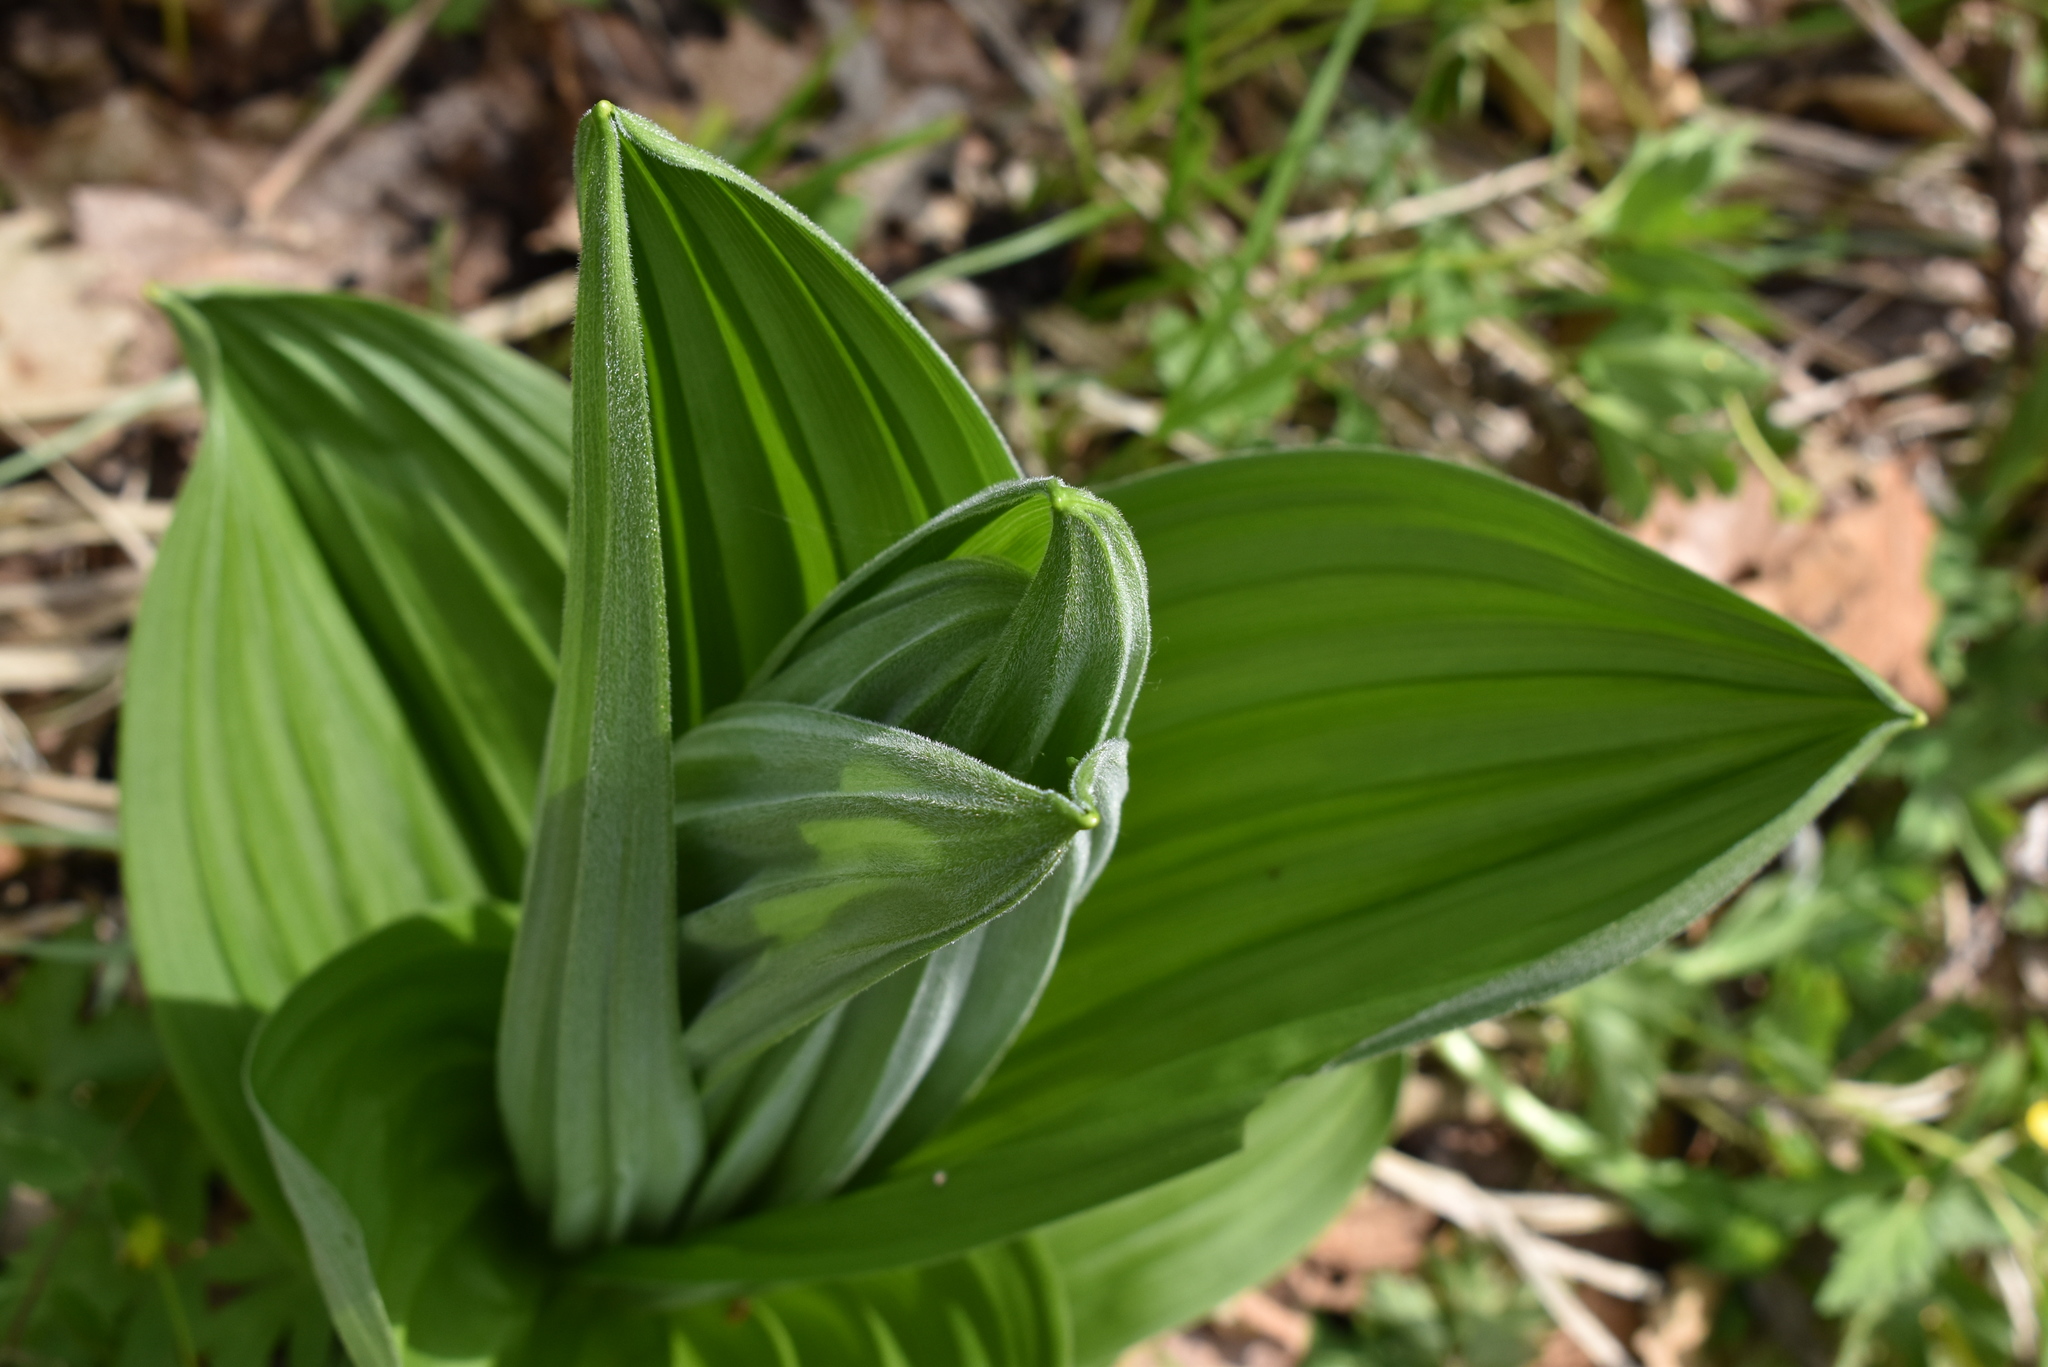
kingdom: Plantae
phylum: Tracheophyta
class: Liliopsida
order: Liliales
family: Melanthiaceae
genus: Veratrum
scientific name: Veratrum dahuricum
